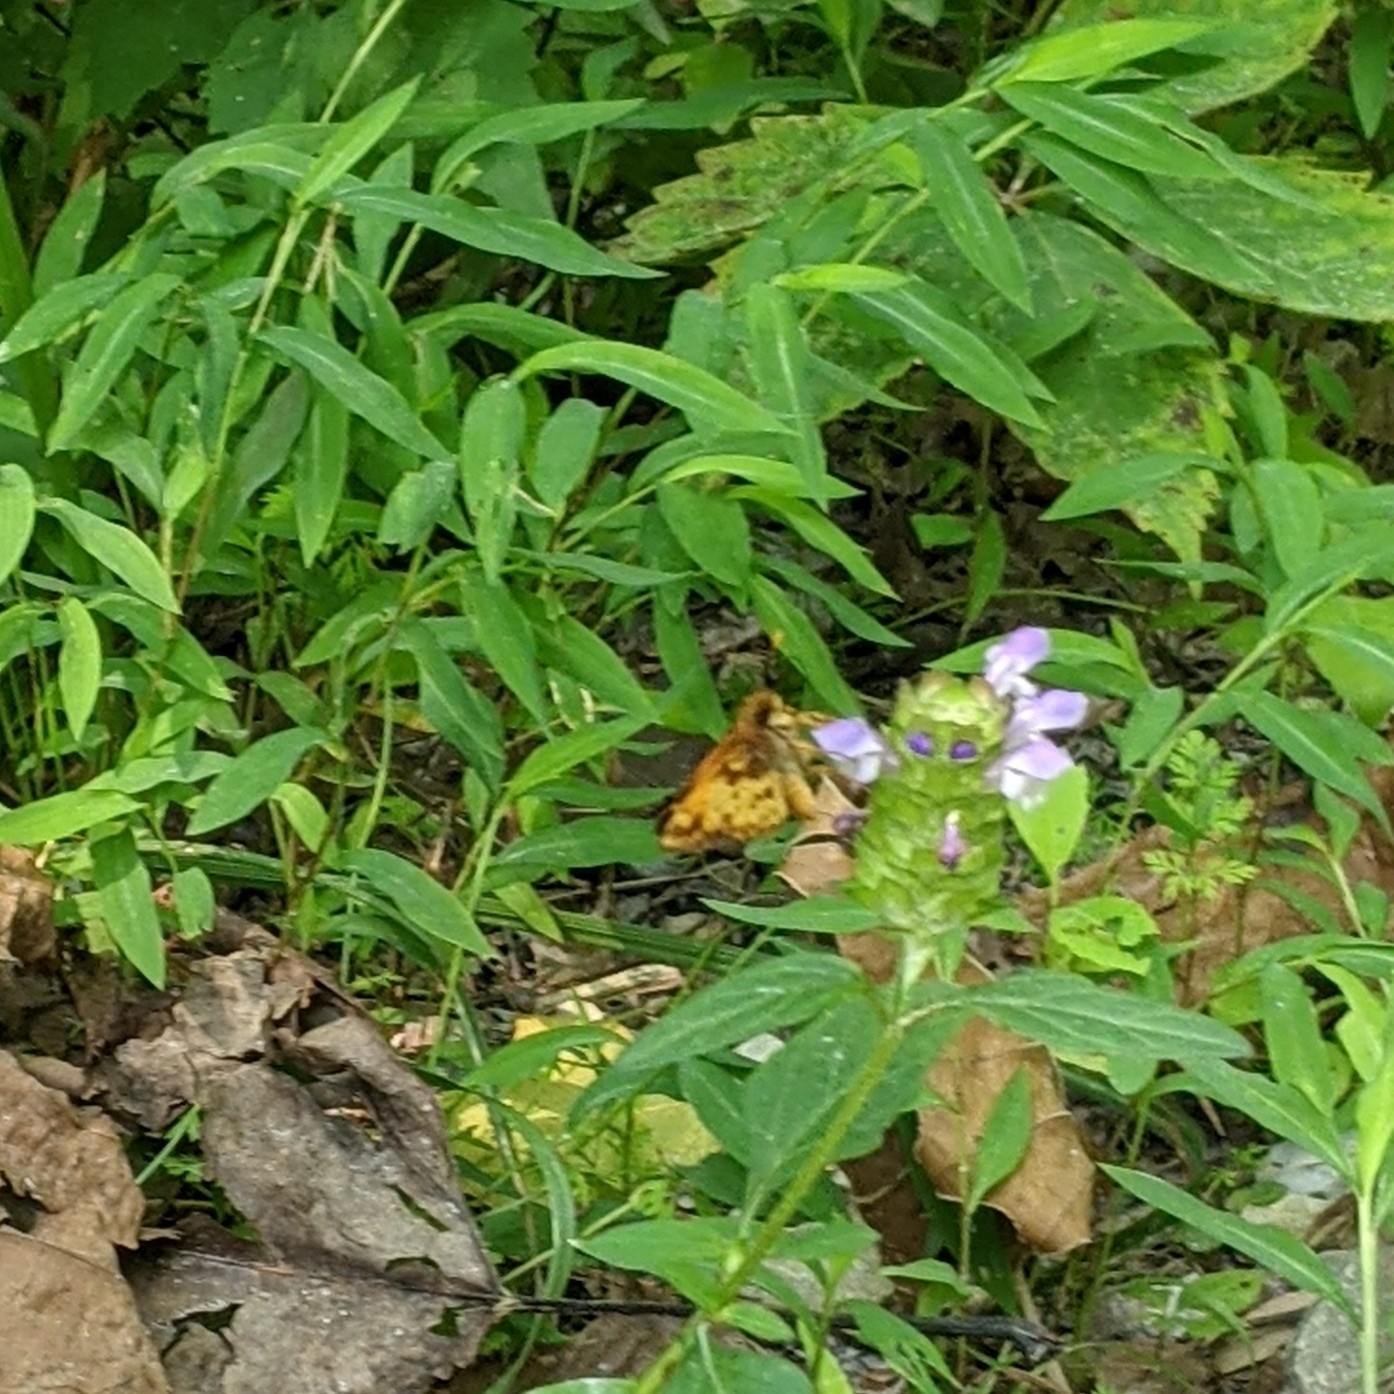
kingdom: Animalia
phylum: Arthropoda
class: Insecta
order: Lepidoptera
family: Hesperiidae
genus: Lon
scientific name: Lon zabulon
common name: Zabulon skipper
